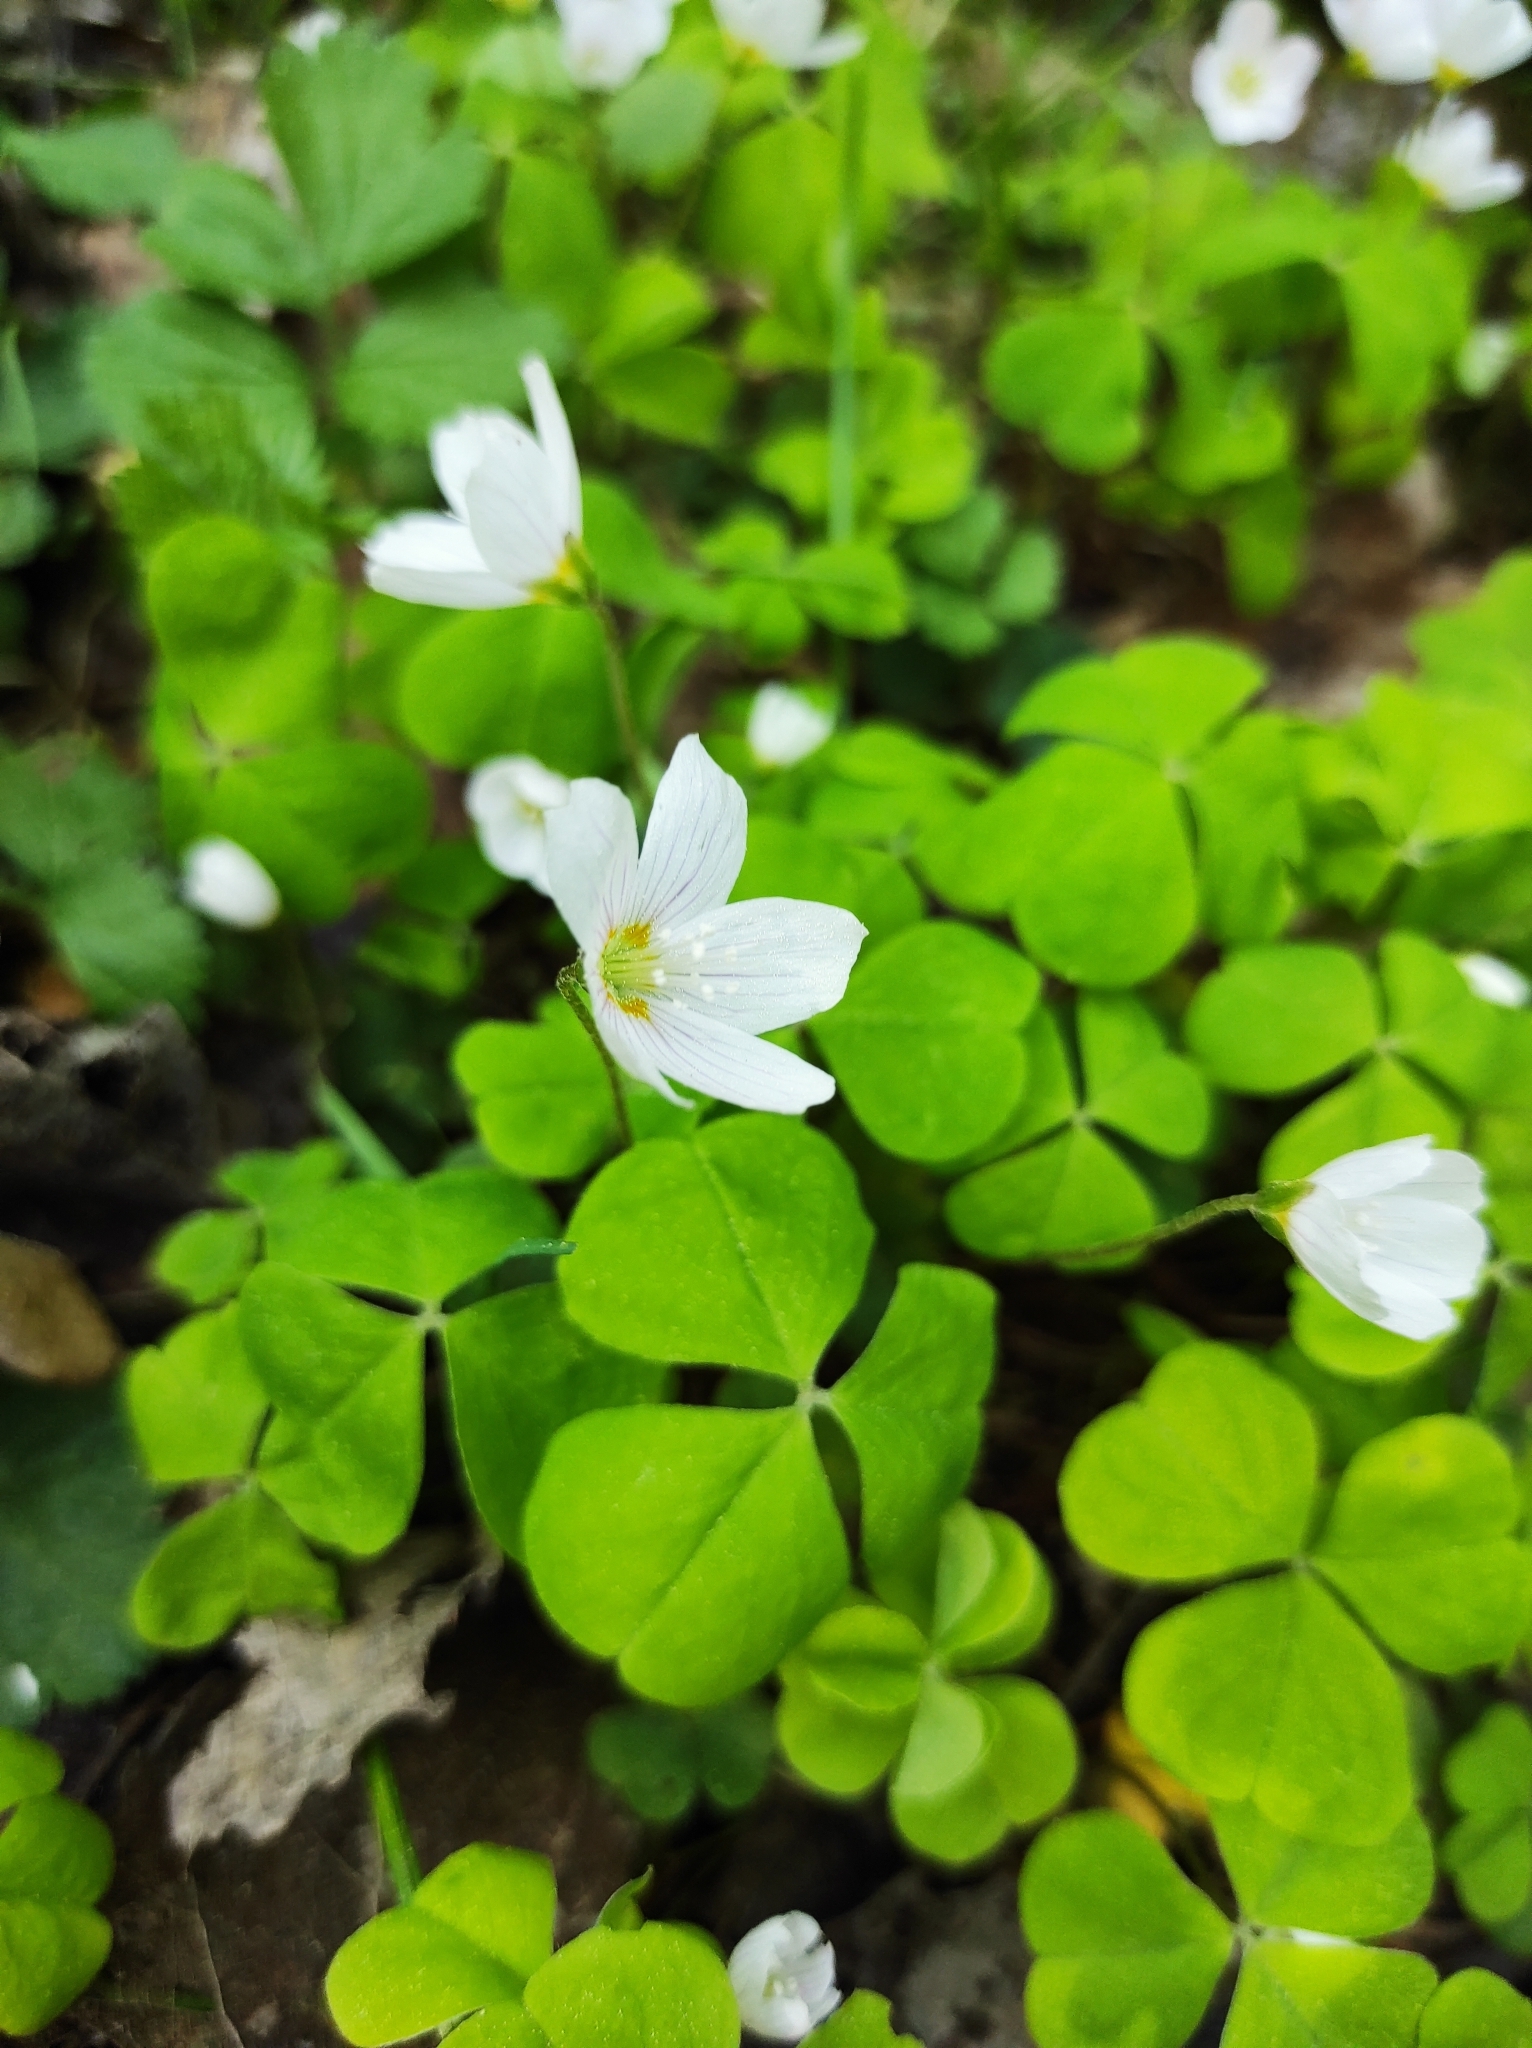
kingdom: Plantae
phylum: Tracheophyta
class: Magnoliopsida
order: Oxalidales
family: Oxalidaceae
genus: Oxalis
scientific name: Oxalis acetosella
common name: Wood-sorrel
